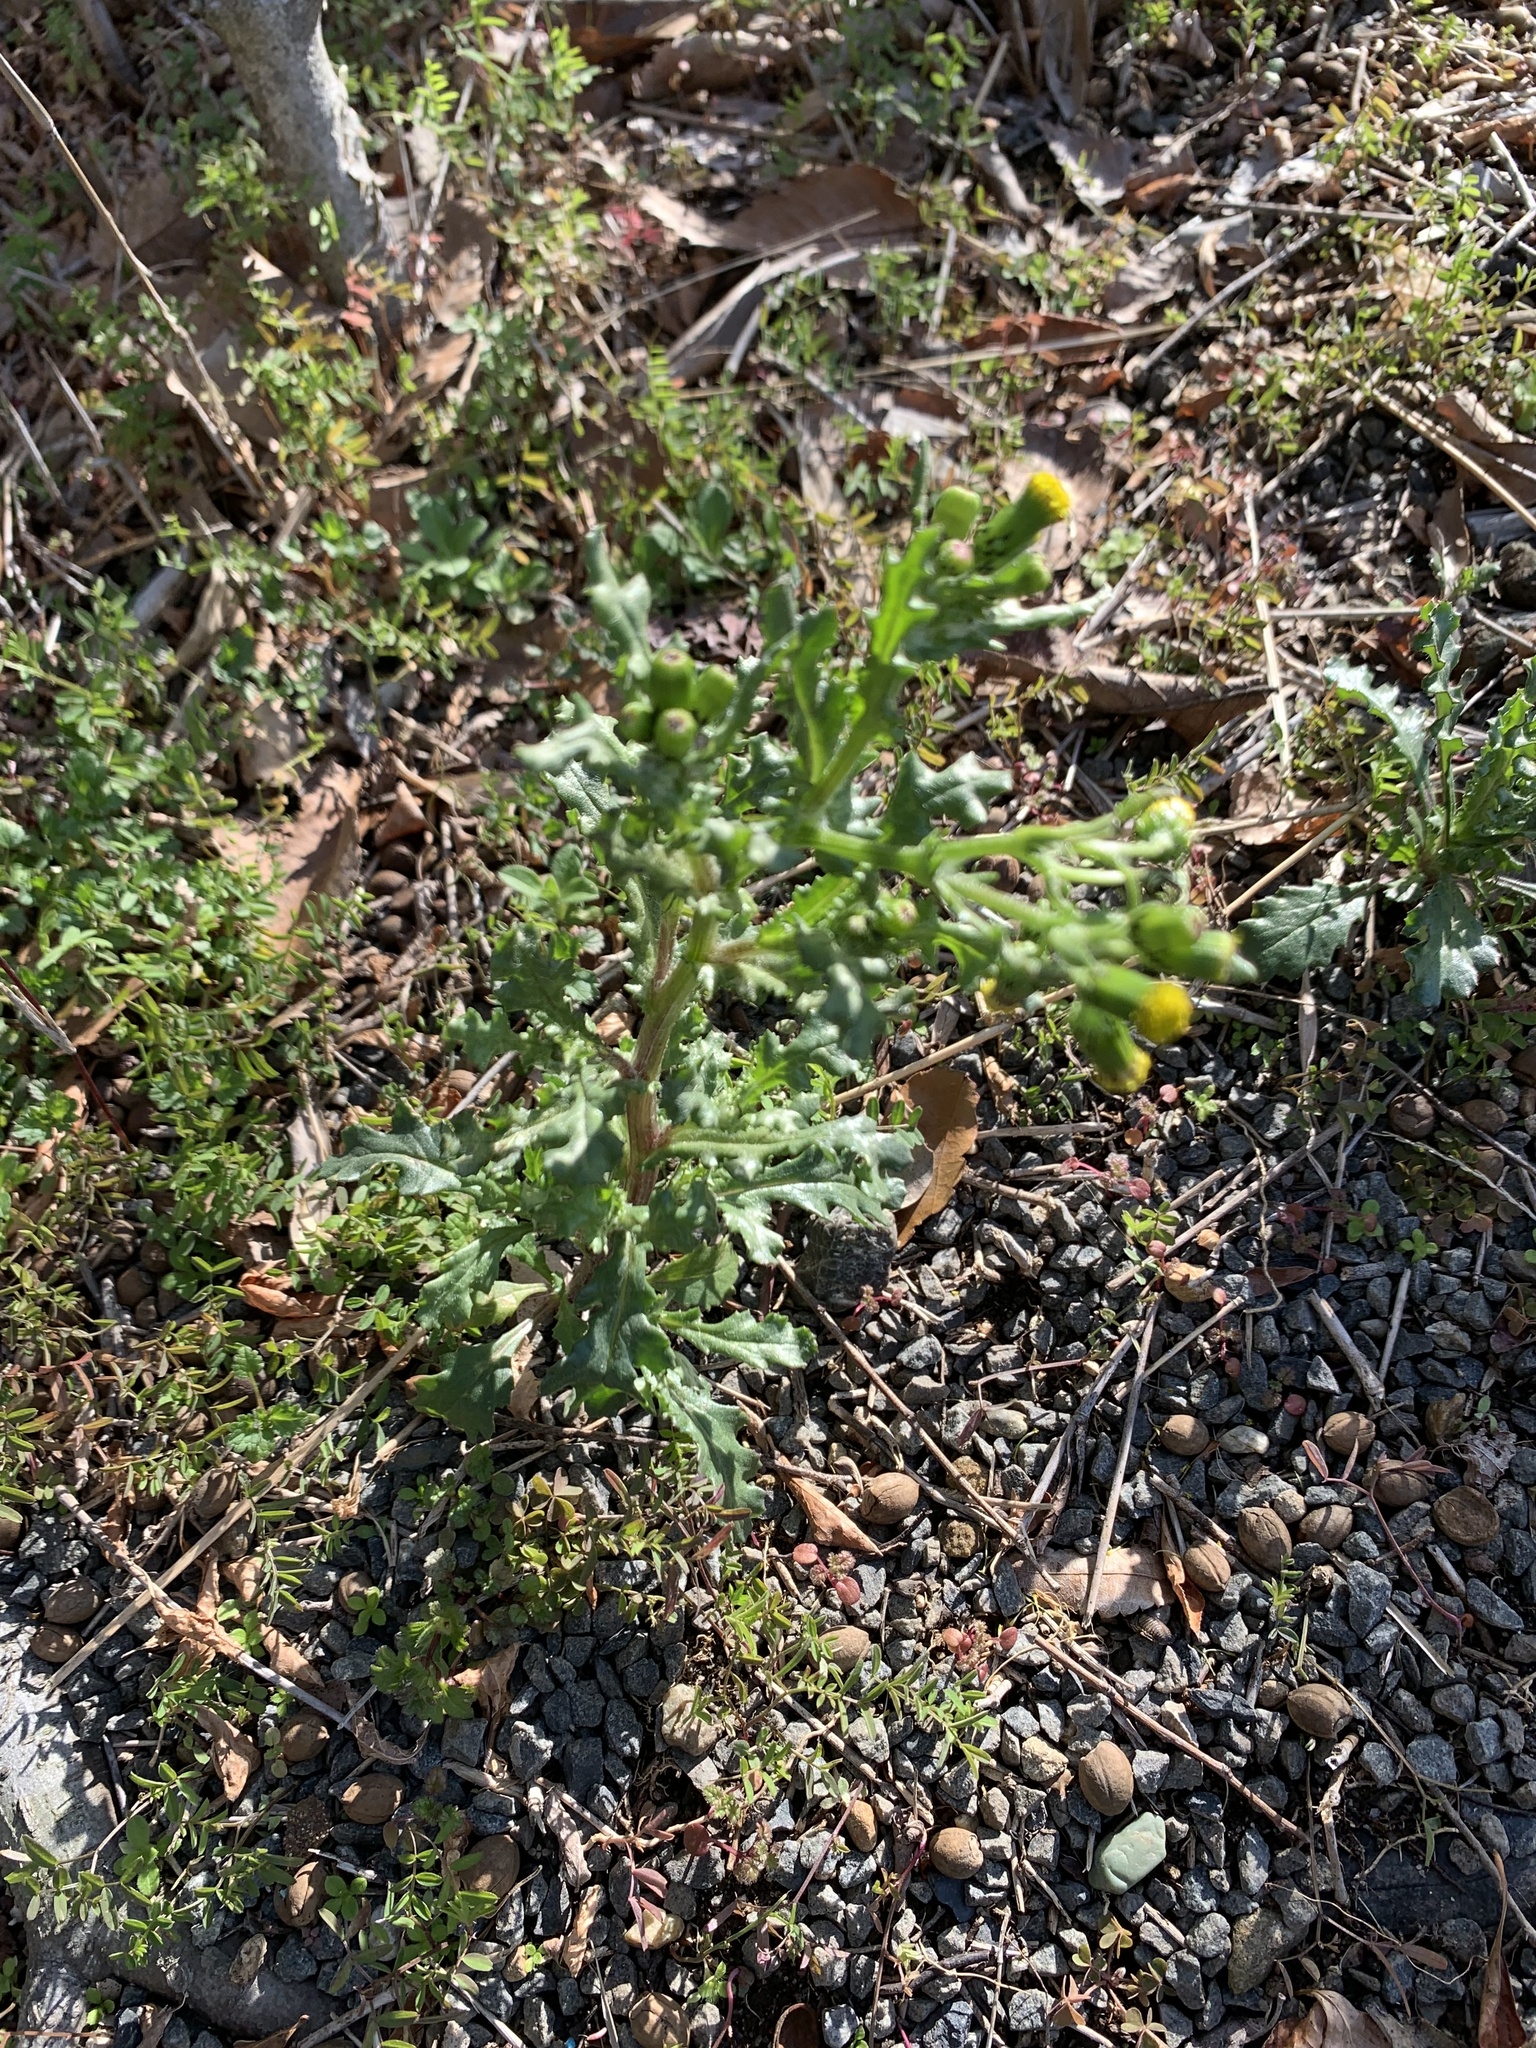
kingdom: Plantae
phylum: Tracheophyta
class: Magnoliopsida
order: Asterales
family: Asteraceae
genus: Senecio
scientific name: Senecio vulgaris
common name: Old-man-in-the-spring
